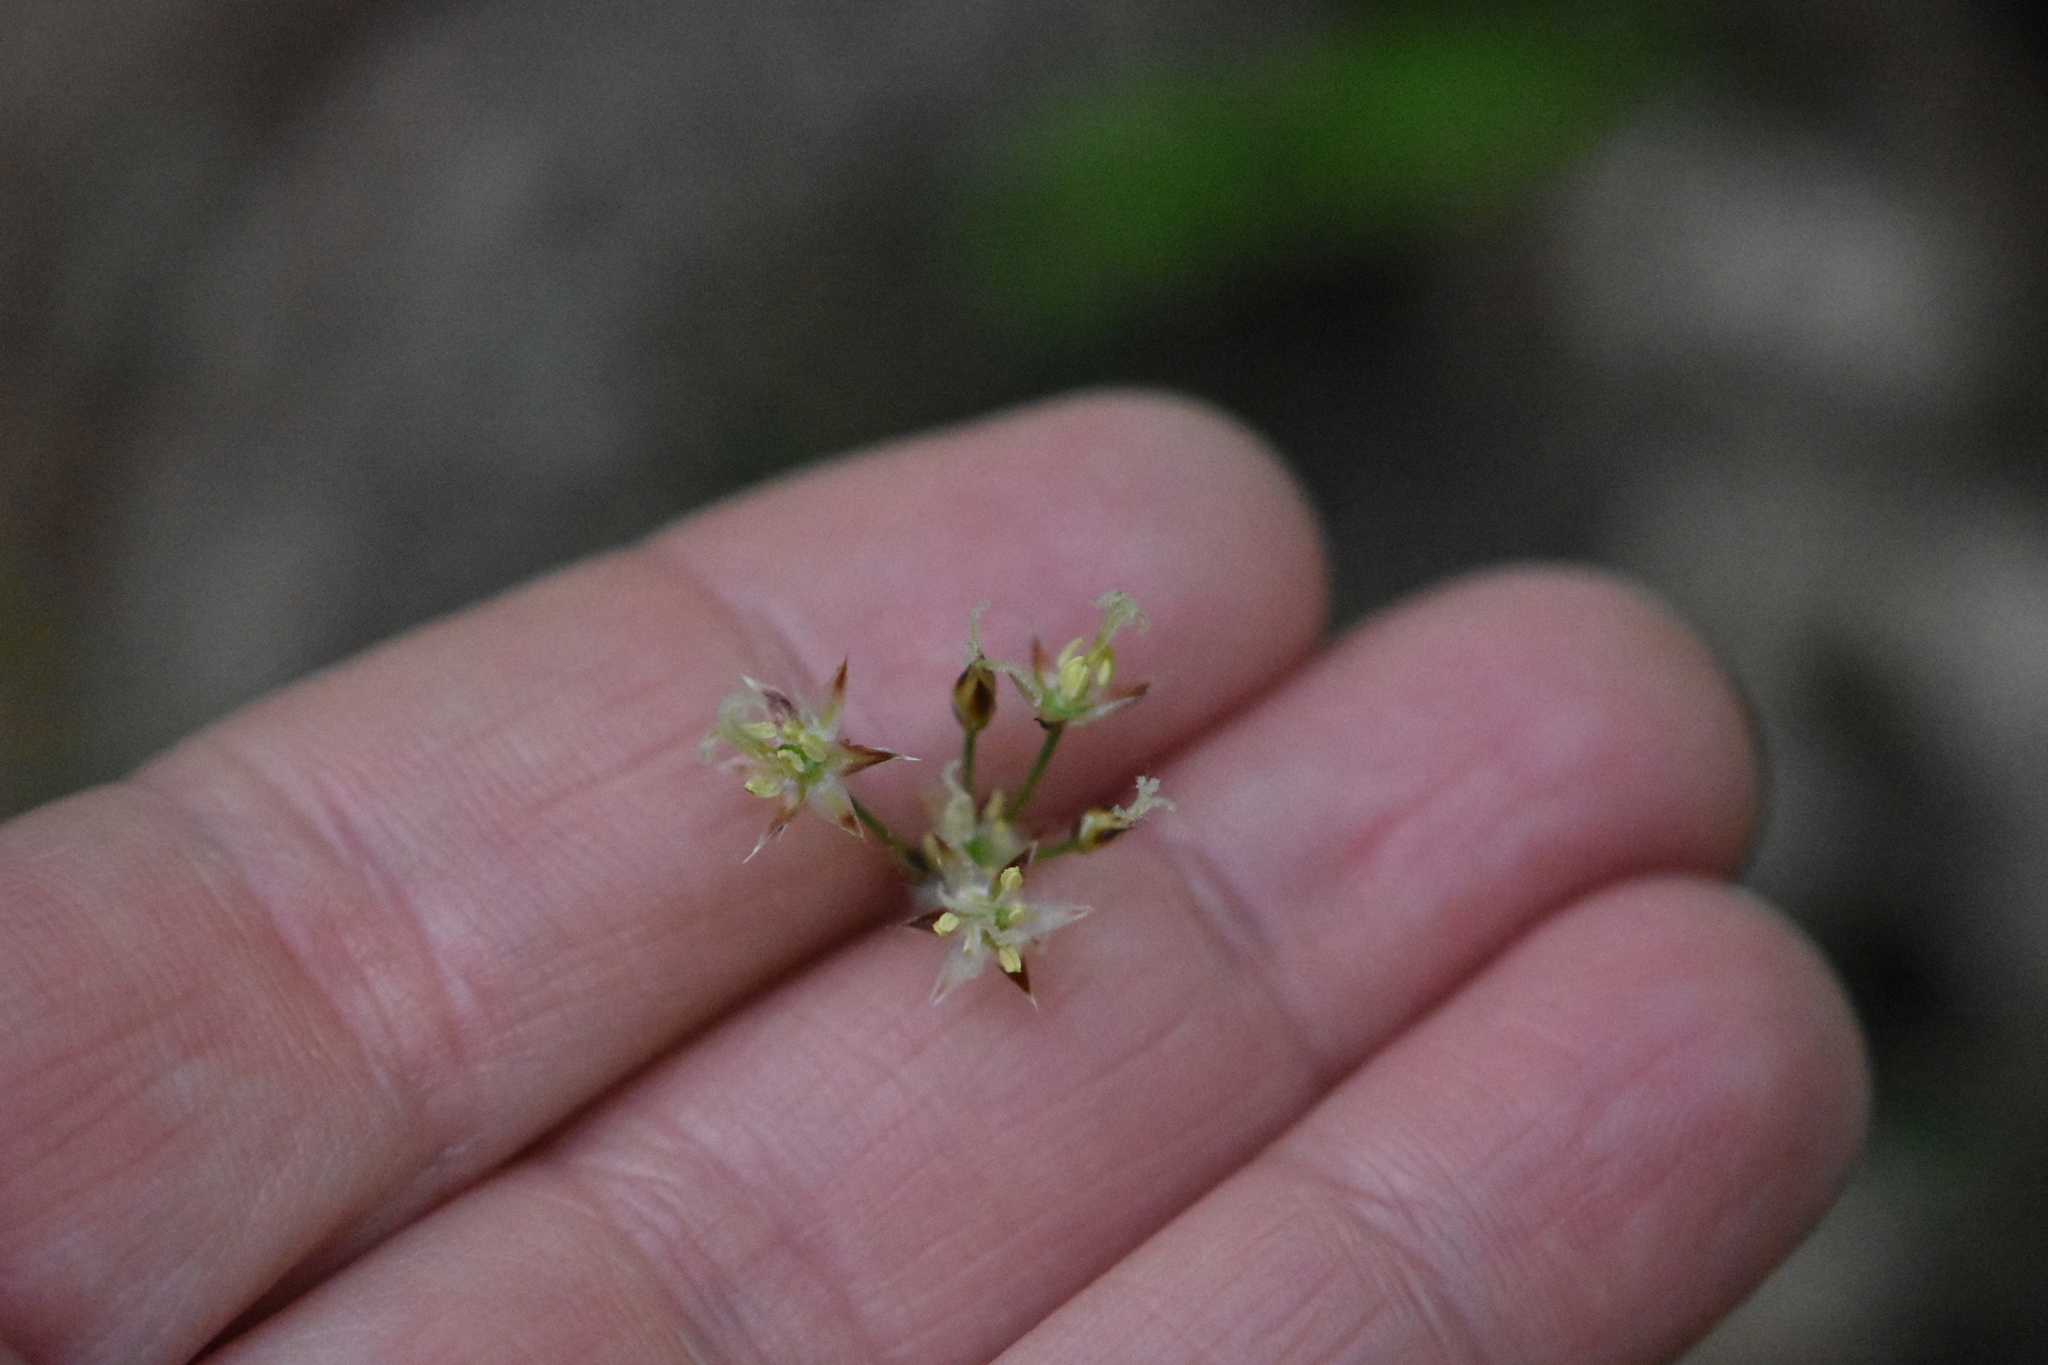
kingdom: Plantae
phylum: Tracheophyta
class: Liliopsida
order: Poales
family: Juncaceae
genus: Luzula
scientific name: Luzula forsteri
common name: Southern wood-rush
